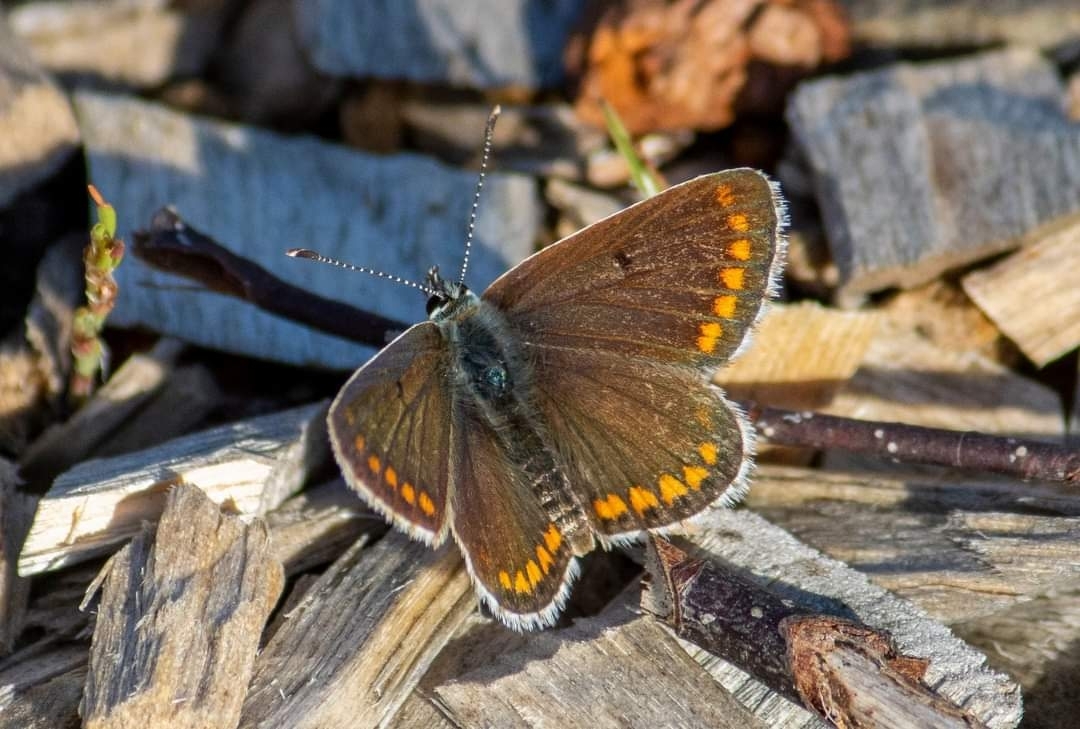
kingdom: Animalia
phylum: Arthropoda
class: Insecta
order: Lepidoptera
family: Lycaenidae
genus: Aricia
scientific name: Aricia agestis
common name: Brown argus
